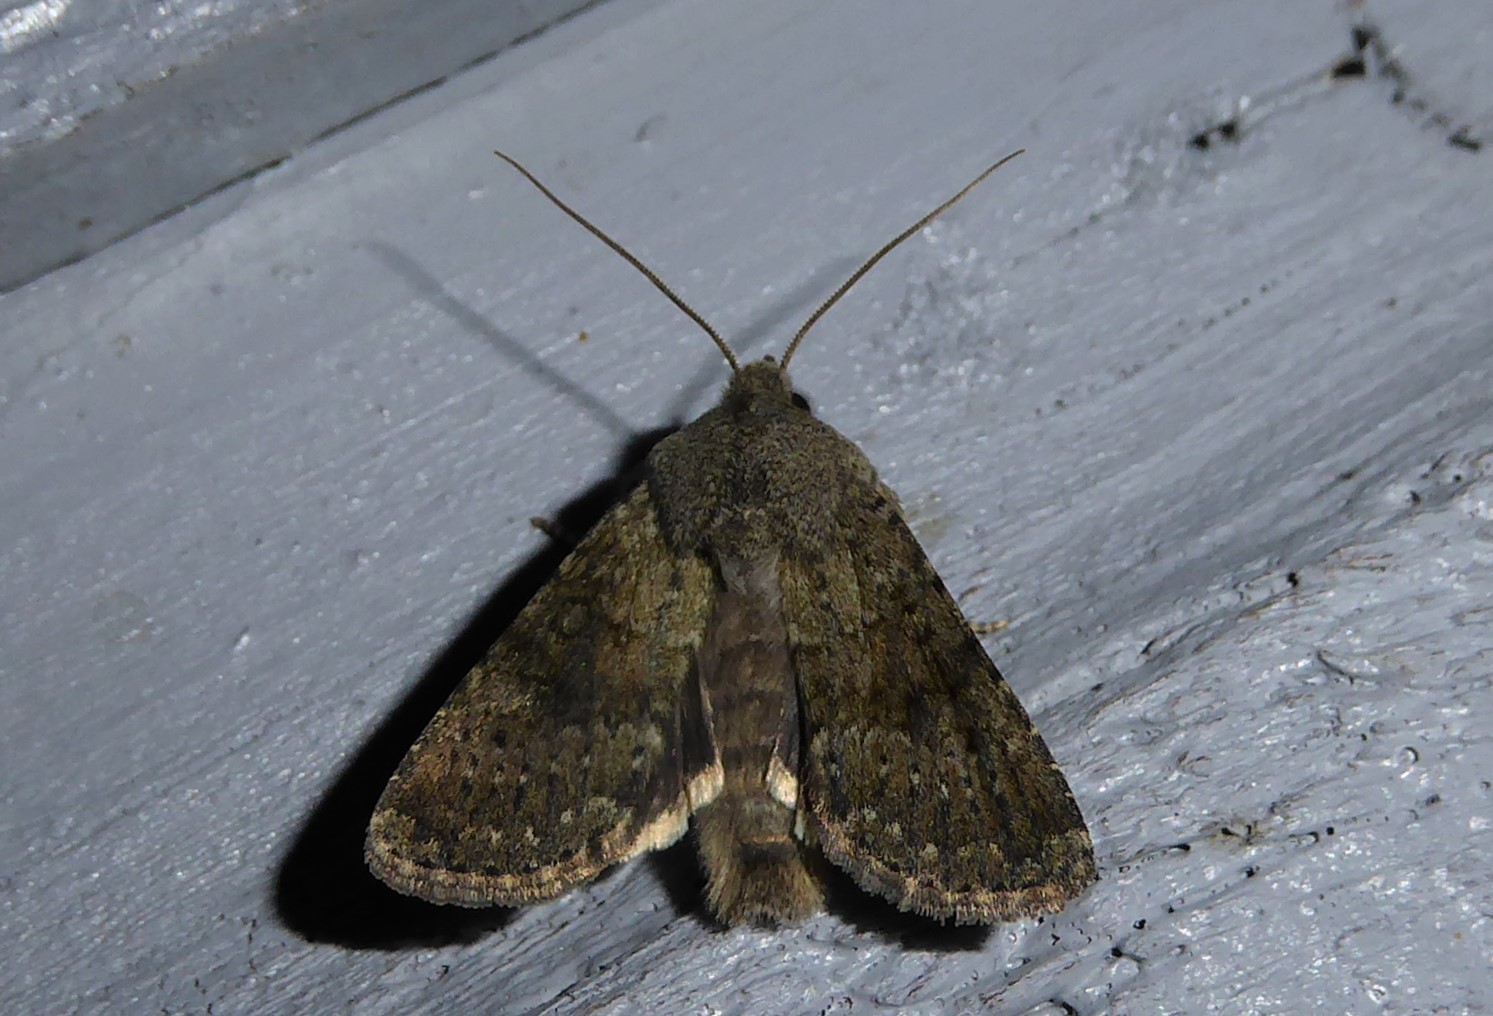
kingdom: Animalia
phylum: Arthropoda
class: Insecta
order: Lepidoptera
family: Noctuidae
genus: Ichneutica
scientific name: Ichneutica moderata
